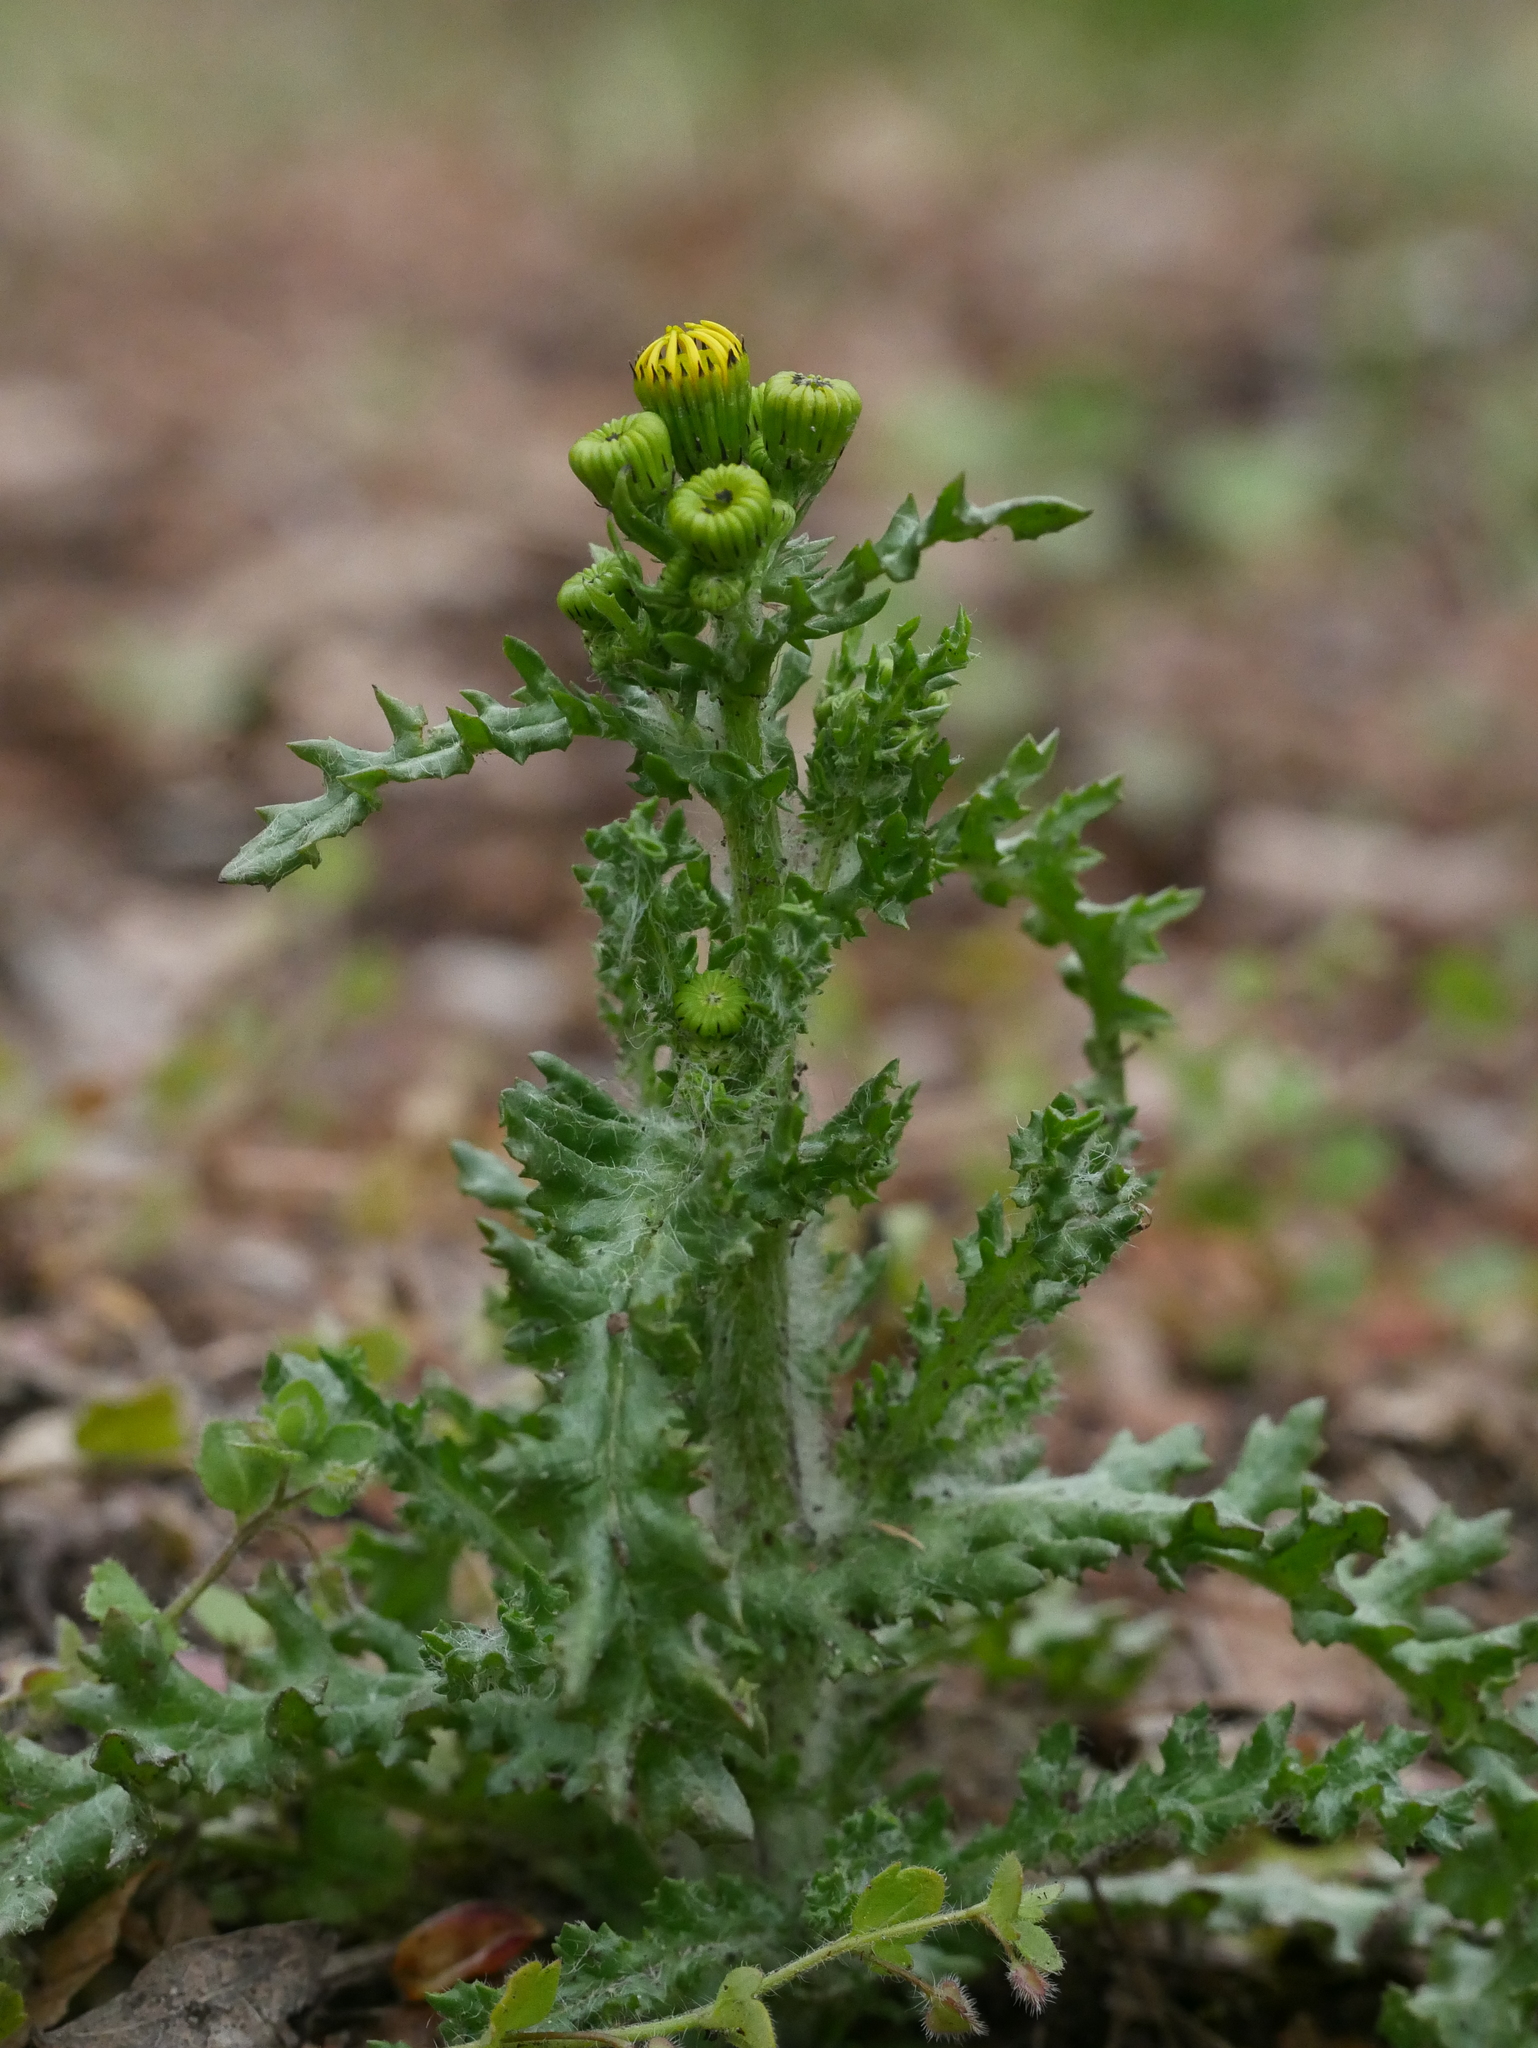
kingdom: Plantae
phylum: Tracheophyta
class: Magnoliopsida
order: Asterales
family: Asteraceae
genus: Senecio
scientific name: Senecio vulgaris
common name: Old-man-in-the-spring
